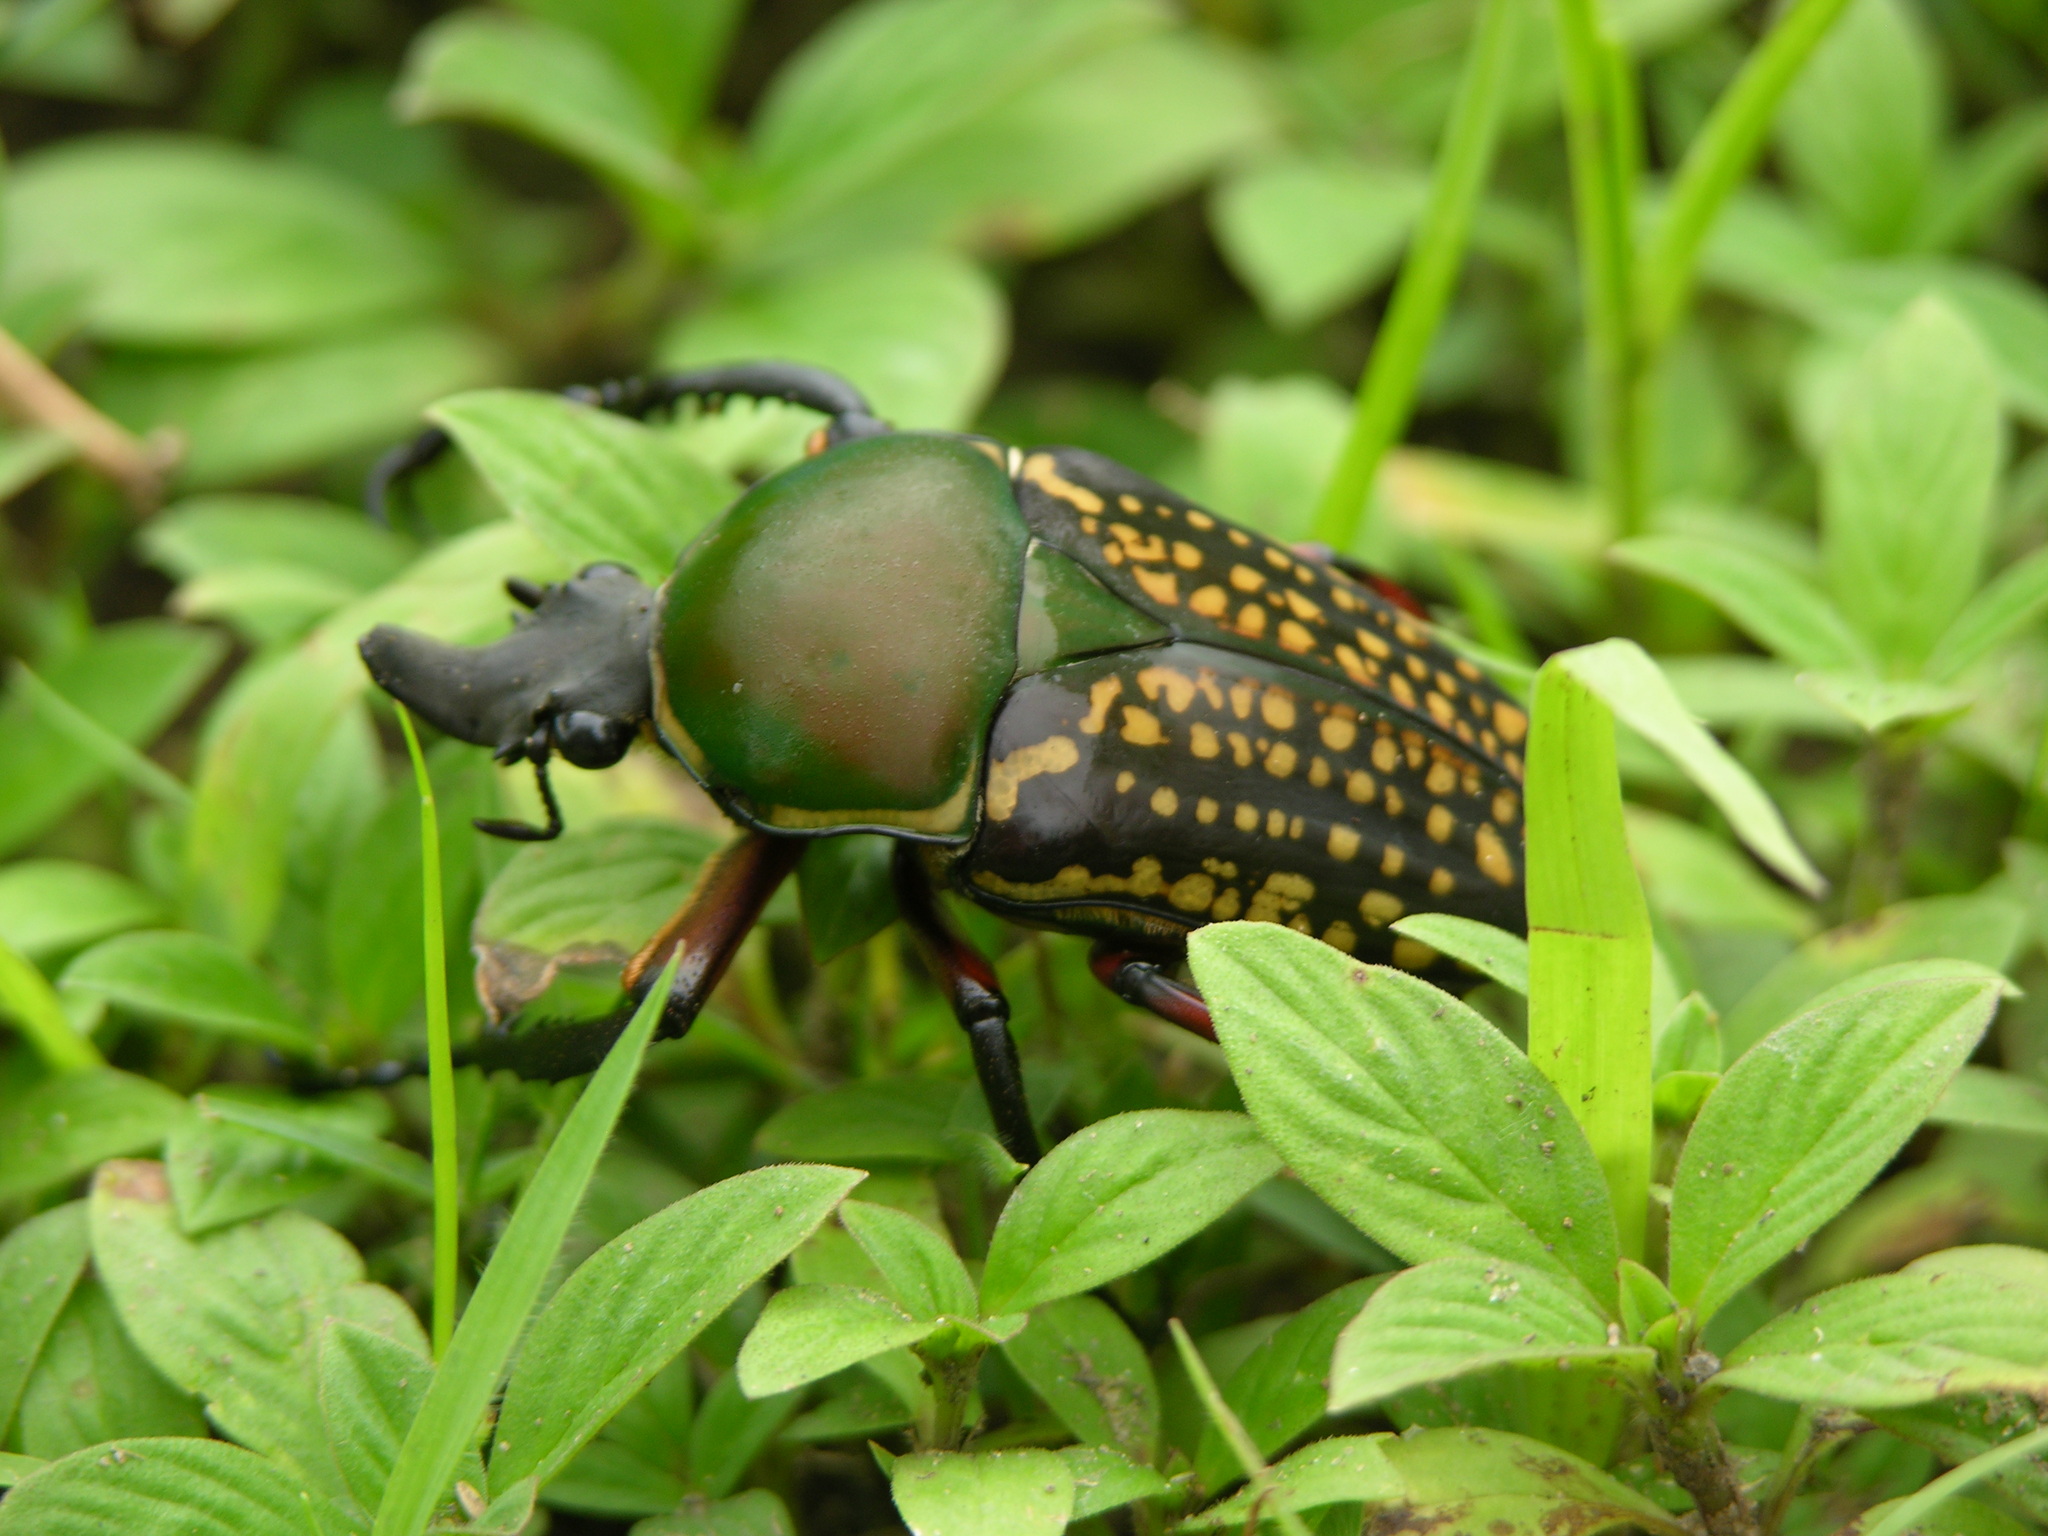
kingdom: Animalia
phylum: Arthropoda
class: Insecta
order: Coleoptera
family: Scarabaeidae
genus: Mecynorhina
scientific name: Mecynorhina harrisii
